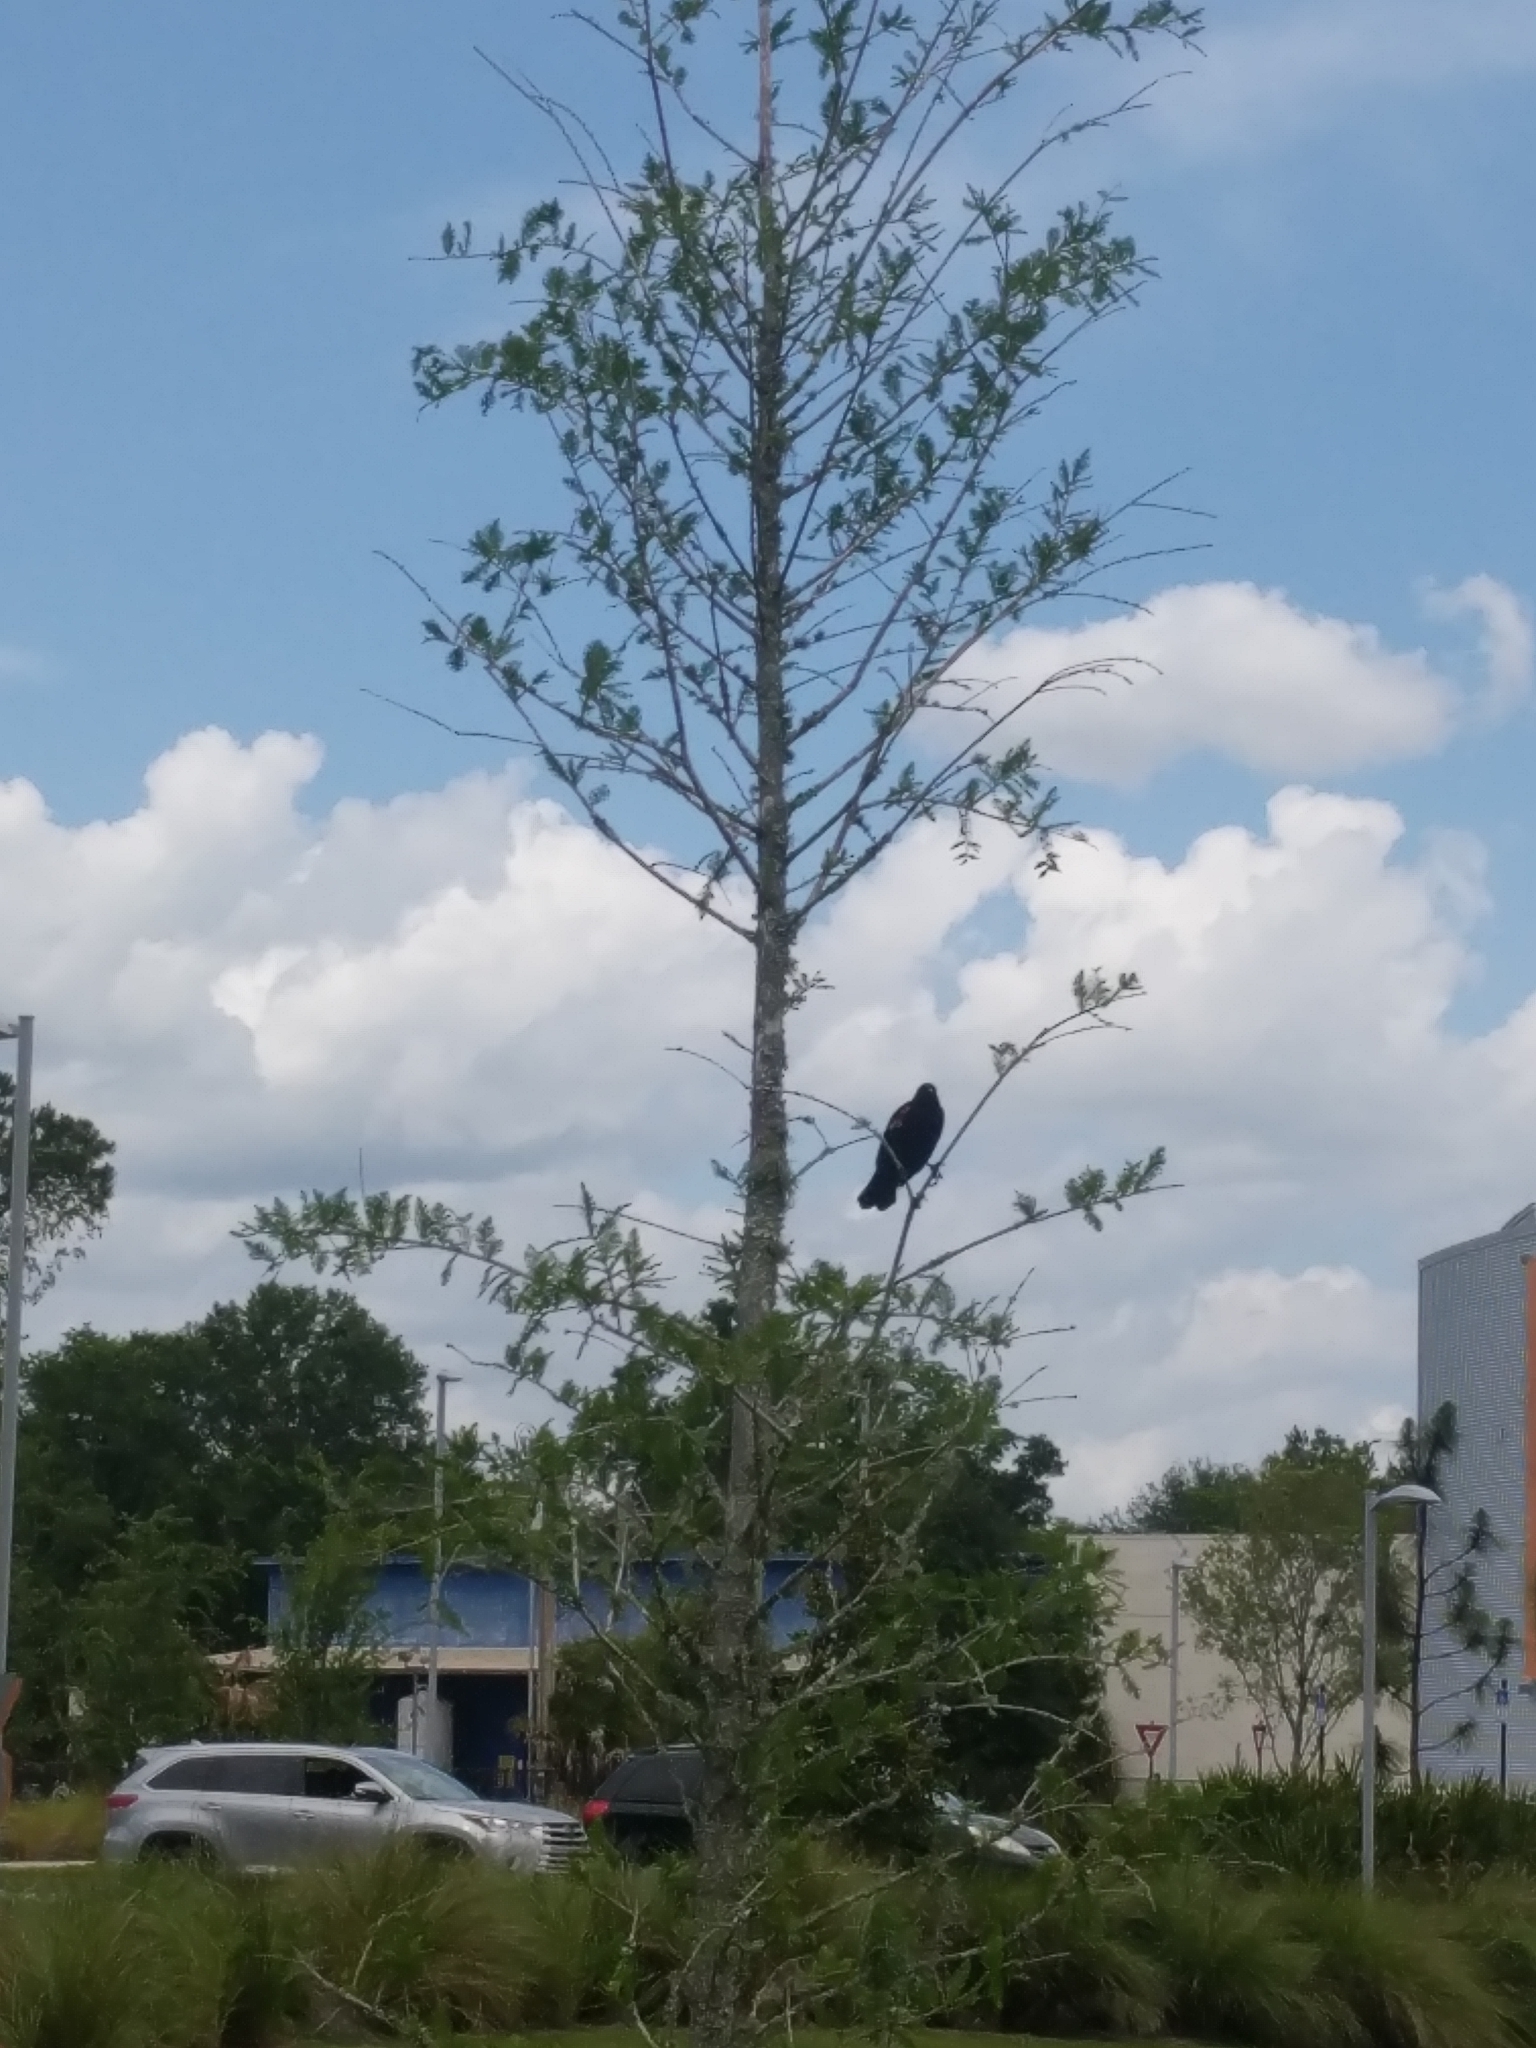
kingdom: Animalia
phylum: Chordata
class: Aves
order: Passeriformes
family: Icteridae
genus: Agelaius
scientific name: Agelaius phoeniceus
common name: Red-winged blackbird
